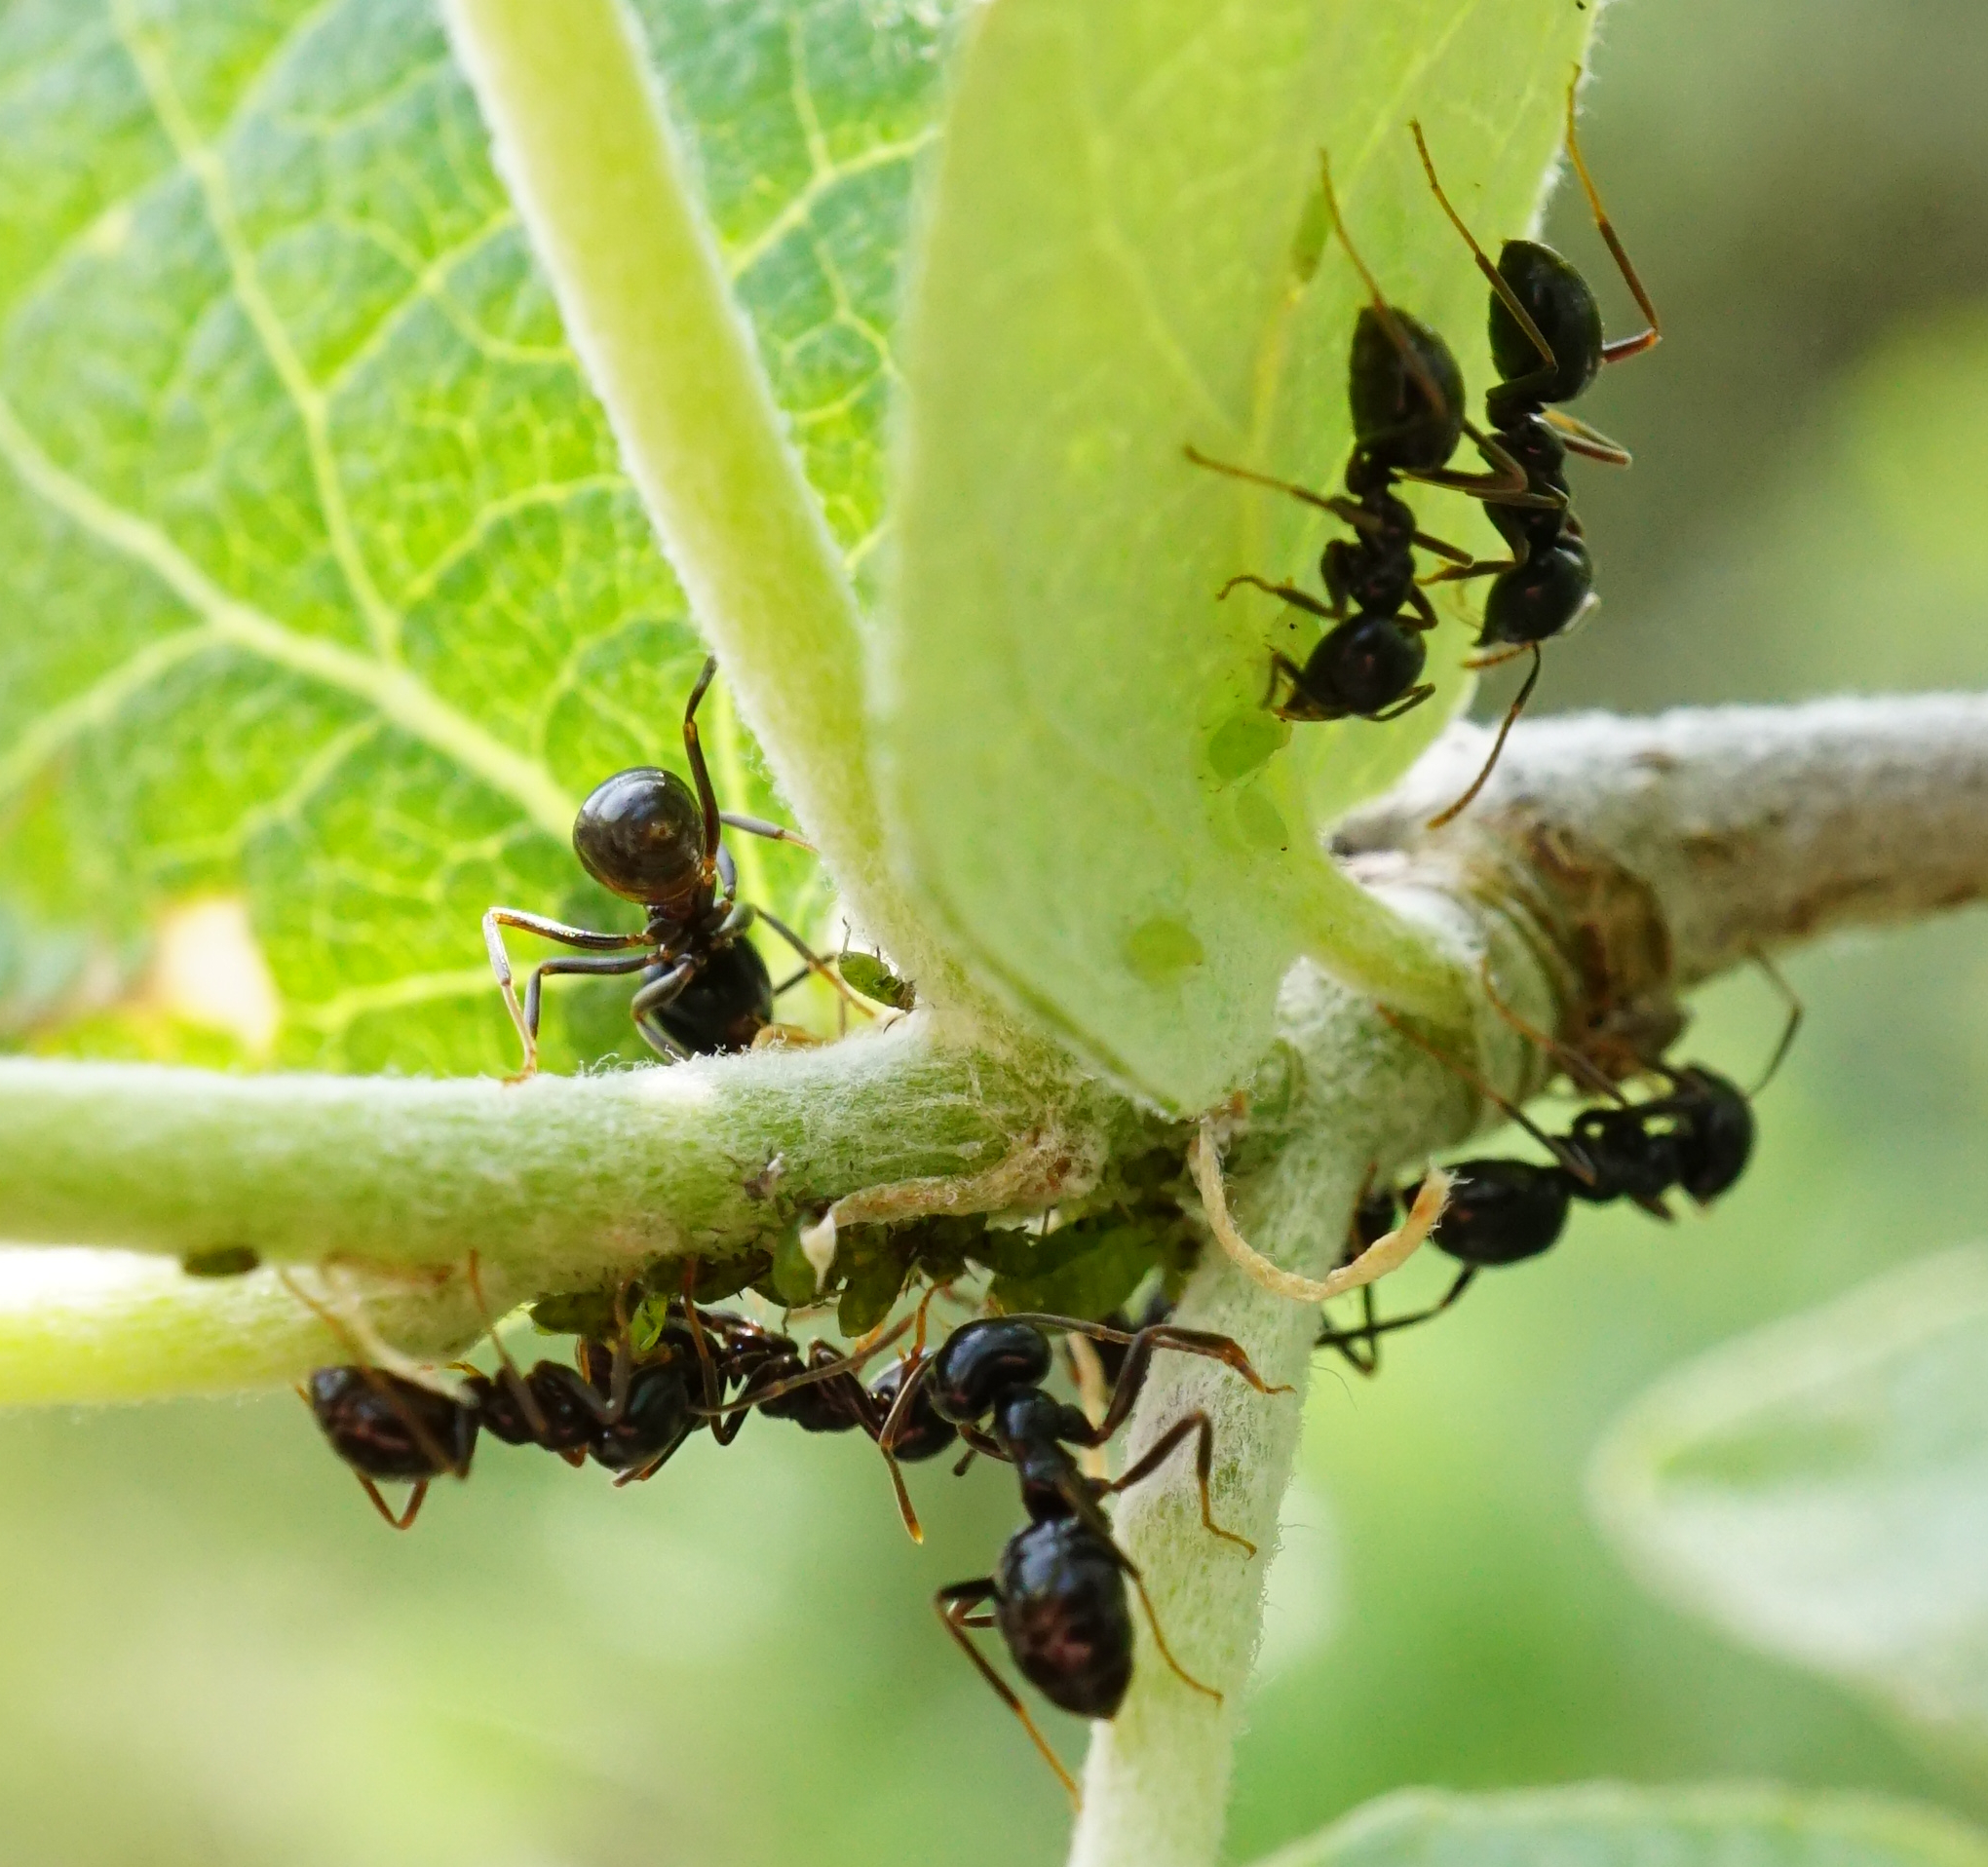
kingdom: Animalia
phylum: Arthropoda
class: Insecta
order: Hymenoptera
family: Formicidae
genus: Lasius
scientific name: Lasius fuliginosus
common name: Jet ant
